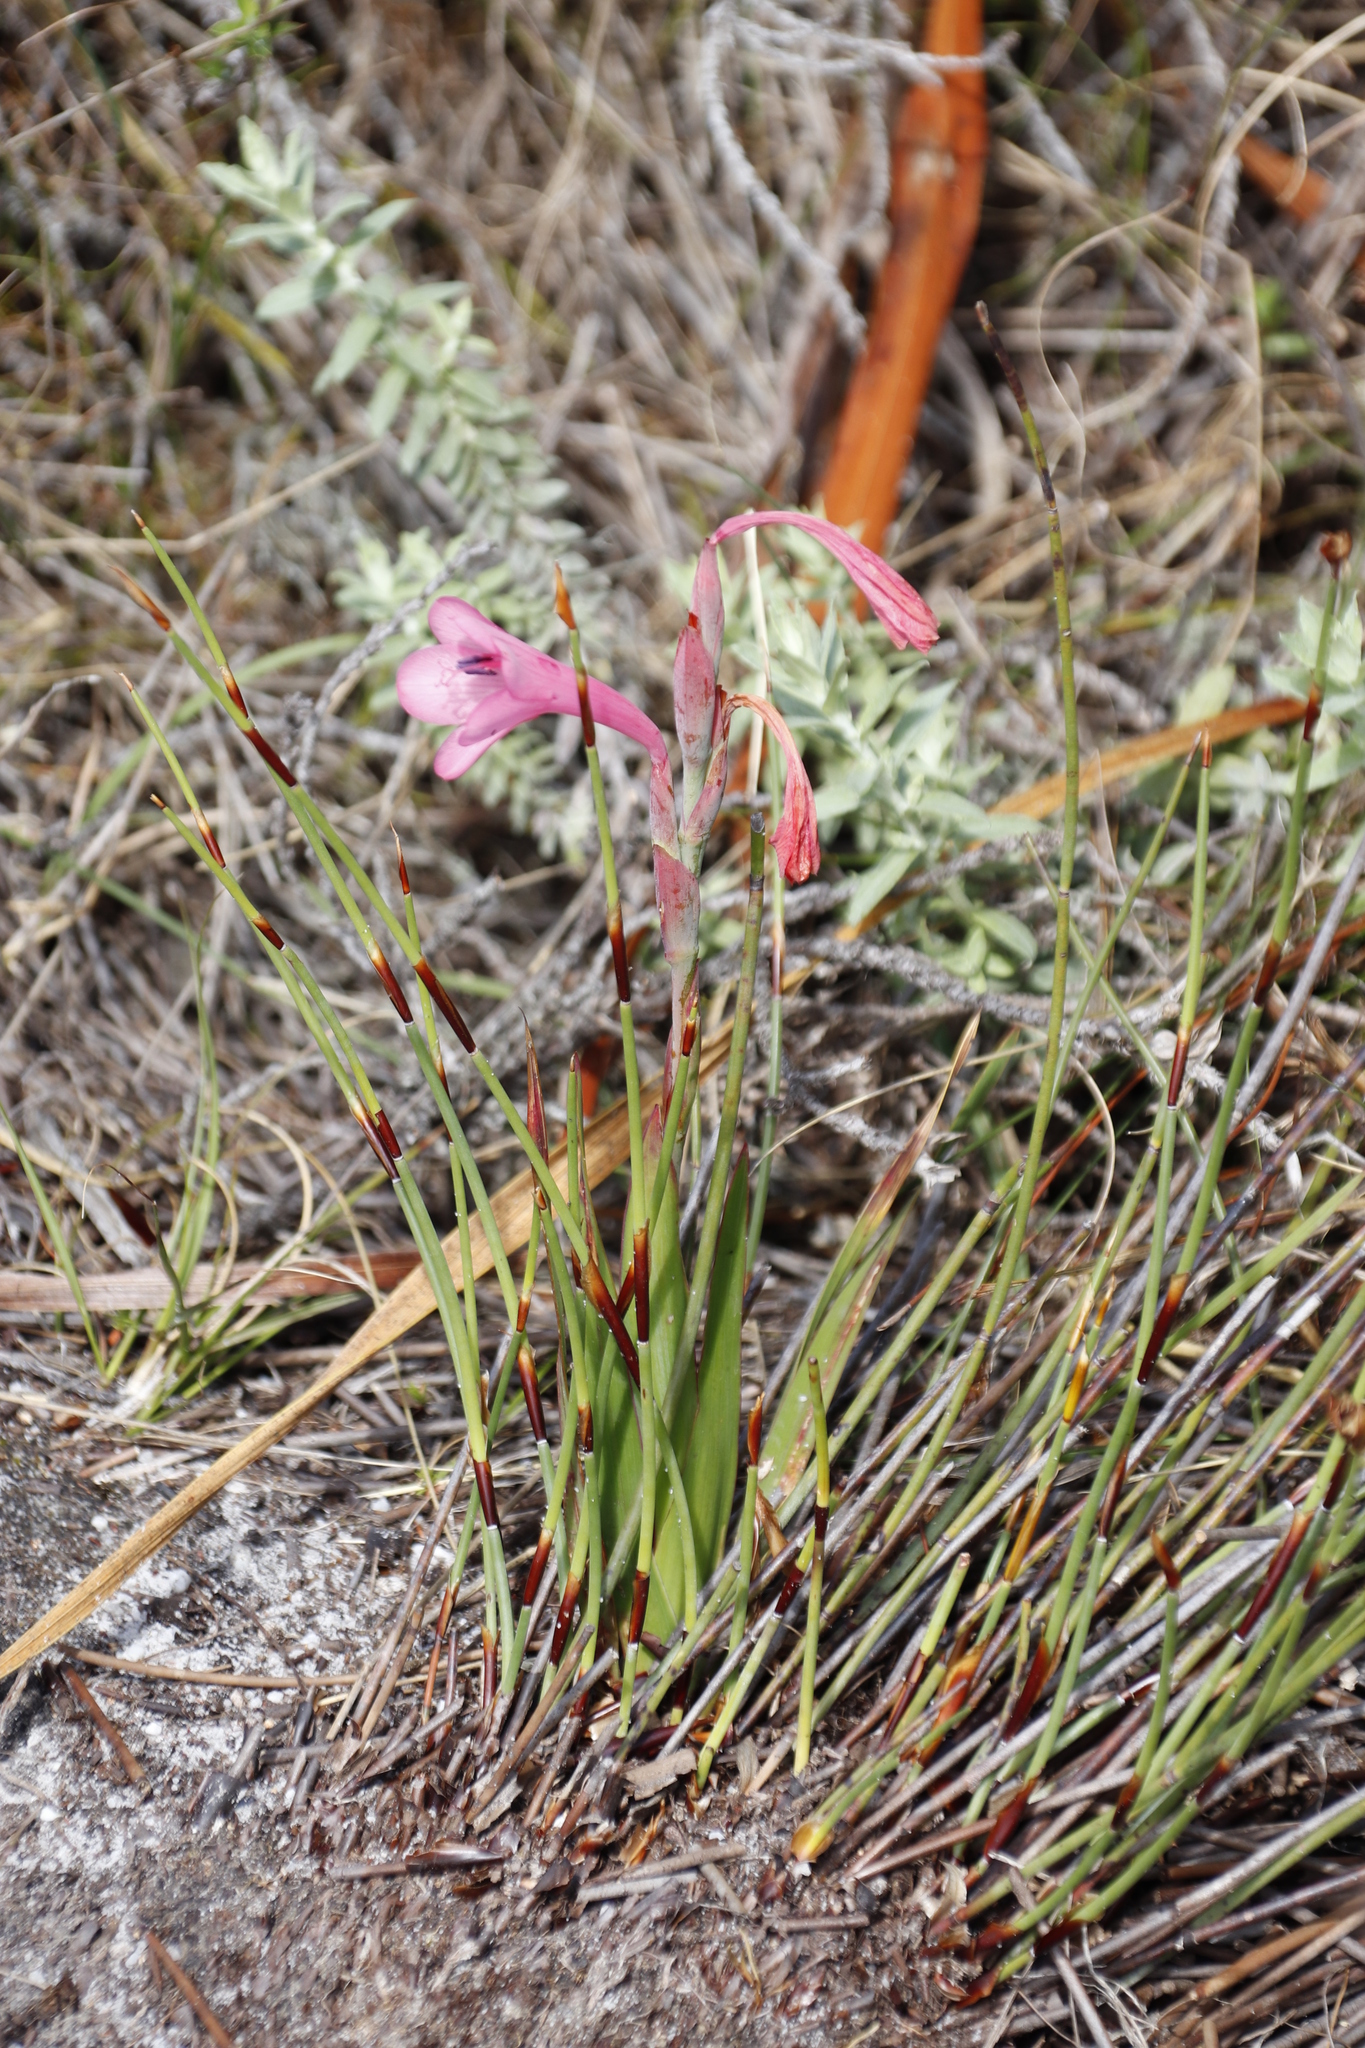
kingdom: Plantae
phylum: Tracheophyta
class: Liliopsida
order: Asparagales
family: Iridaceae
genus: Watsonia
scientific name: Watsonia coccinea
